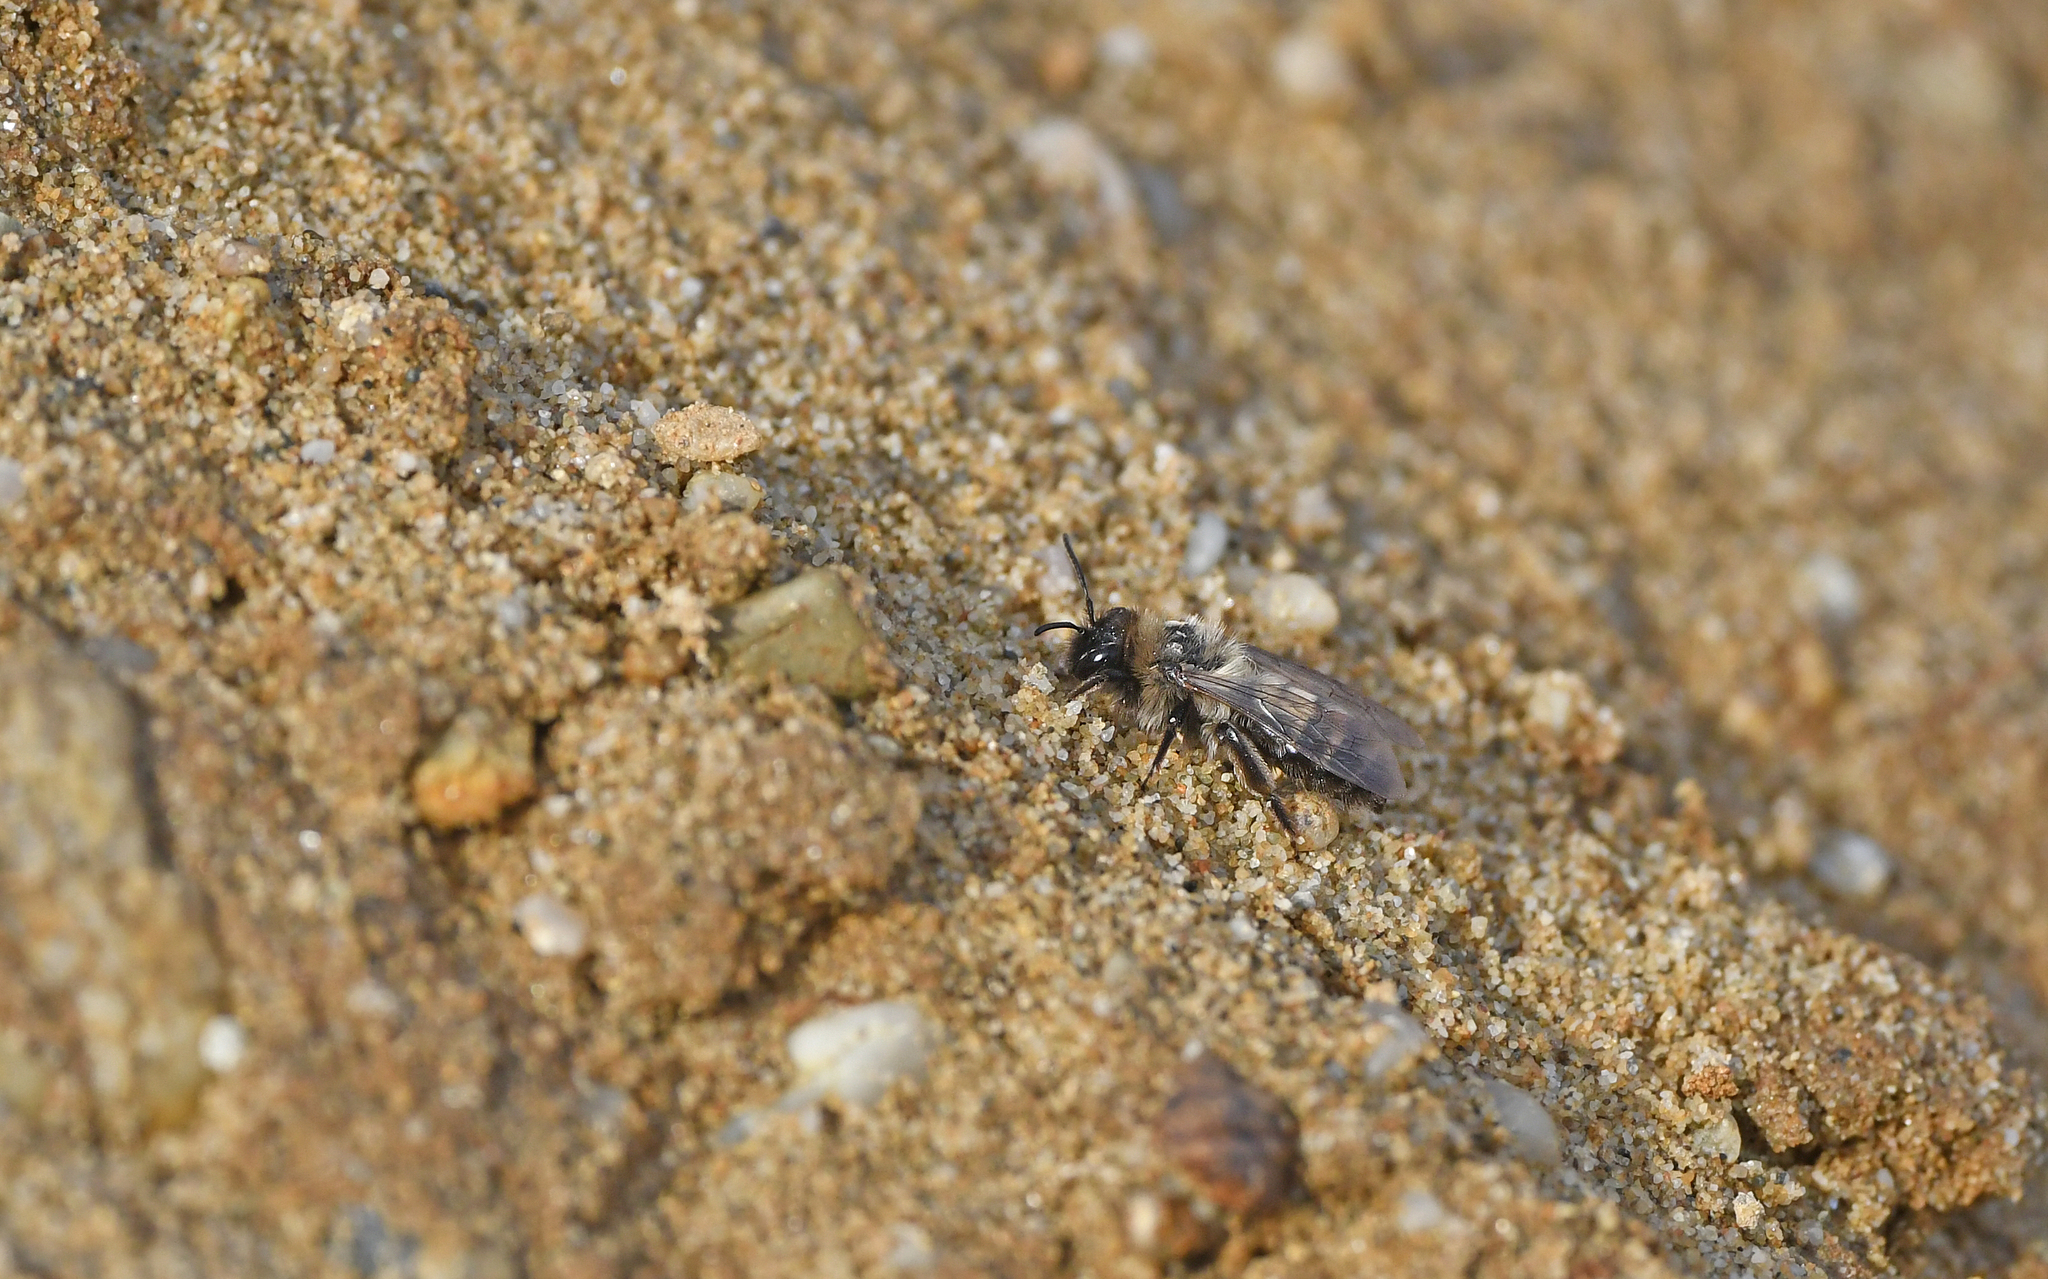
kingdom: Animalia
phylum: Arthropoda
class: Insecta
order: Hymenoptera
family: Andrenidae
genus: Andrena
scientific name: Andrena nycthemera
